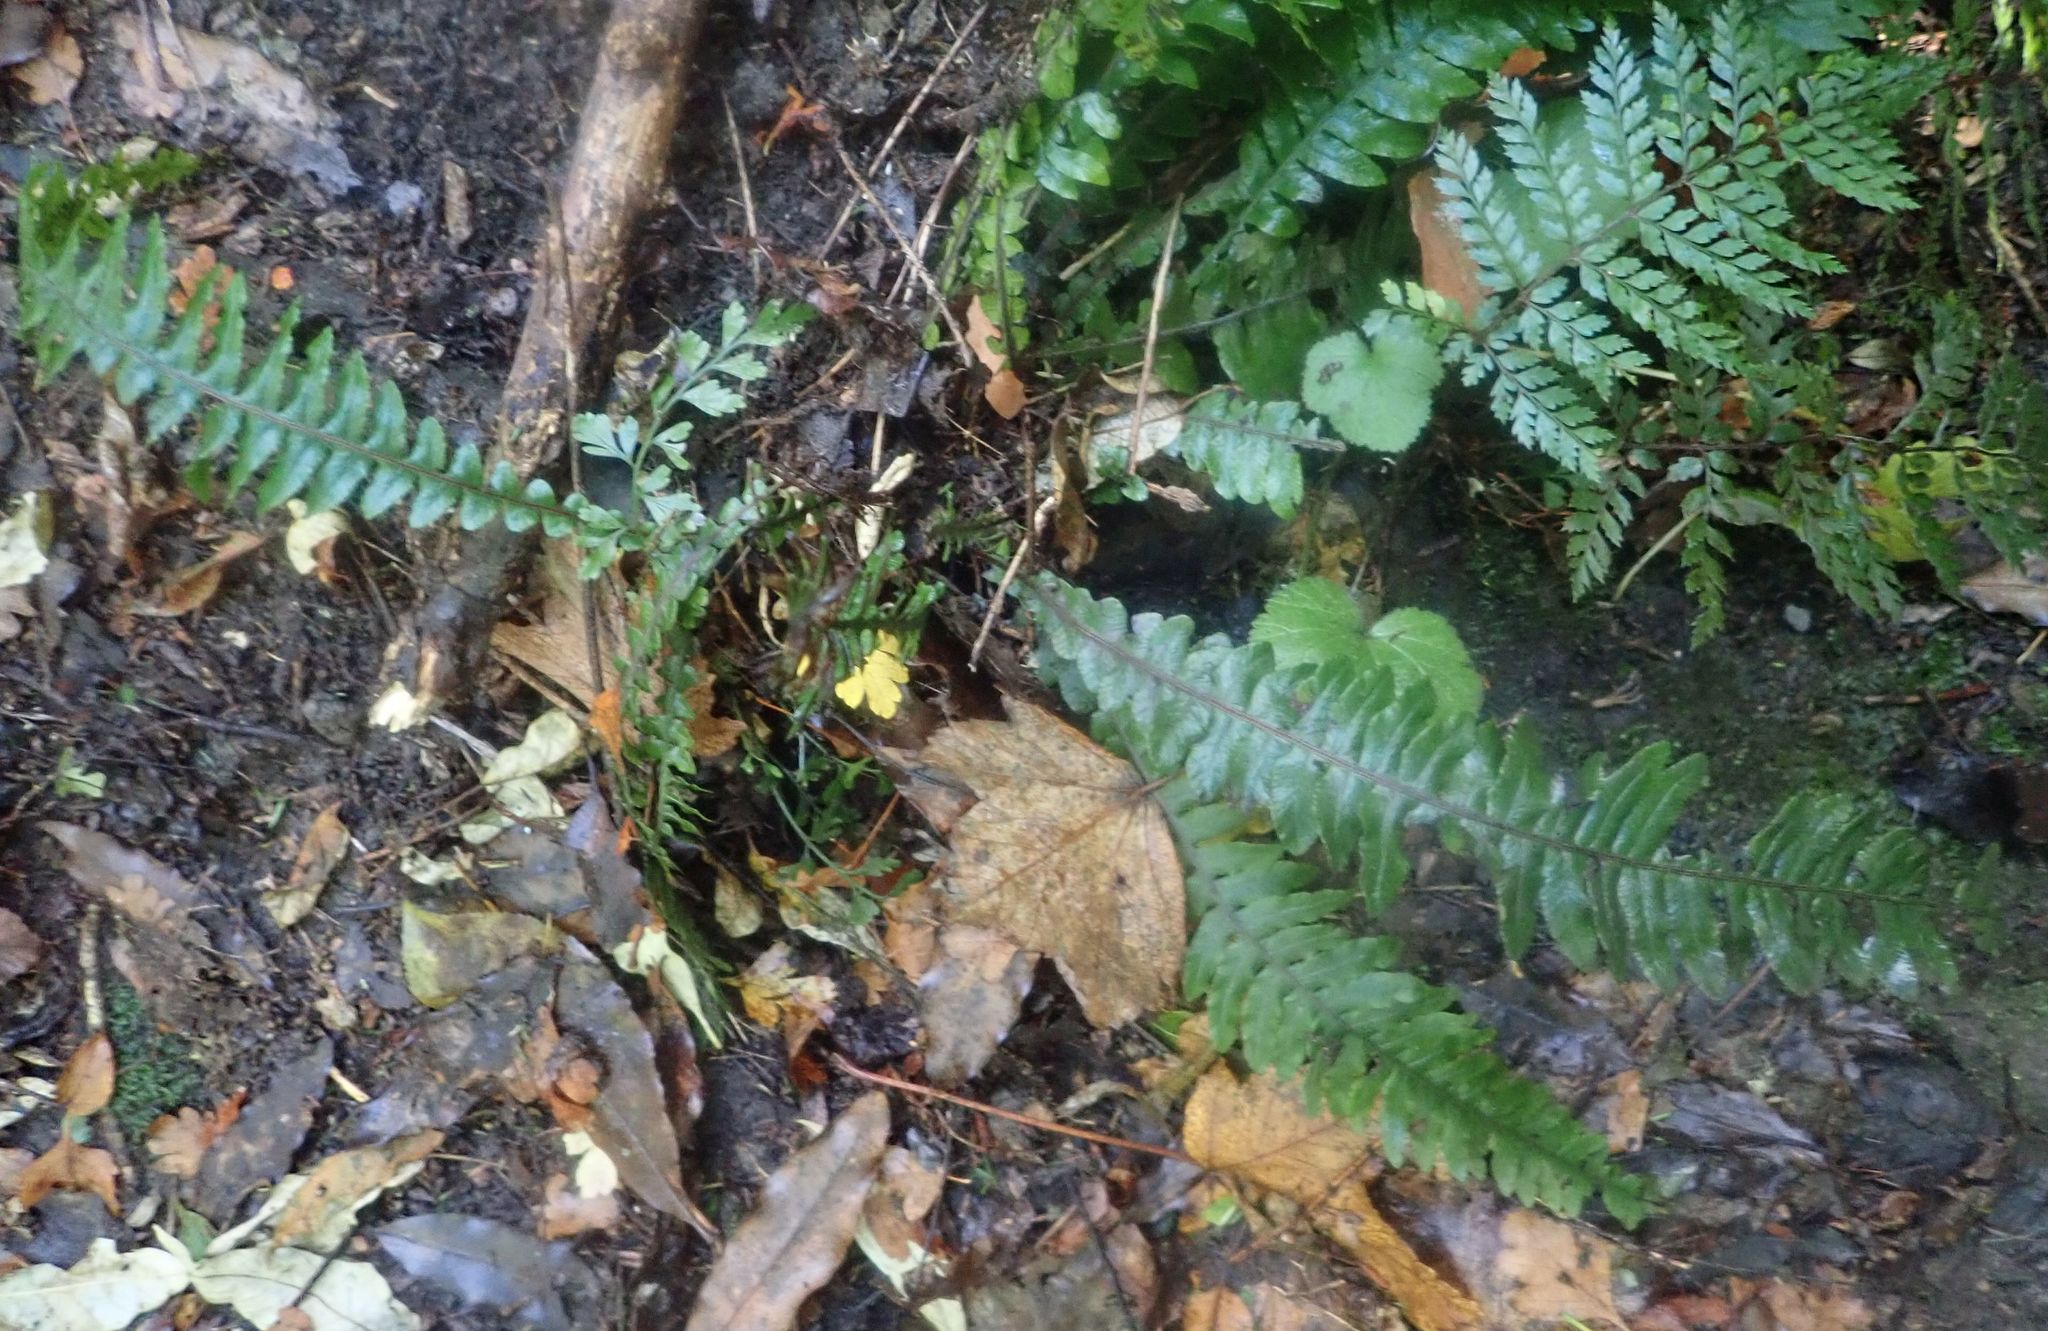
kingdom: Plantae
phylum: Tracheophyta
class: Polypodiopsida
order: Polypodiales
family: Blechnaceae
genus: Austroblechnum
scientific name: Austroblechnum lanceolatum
